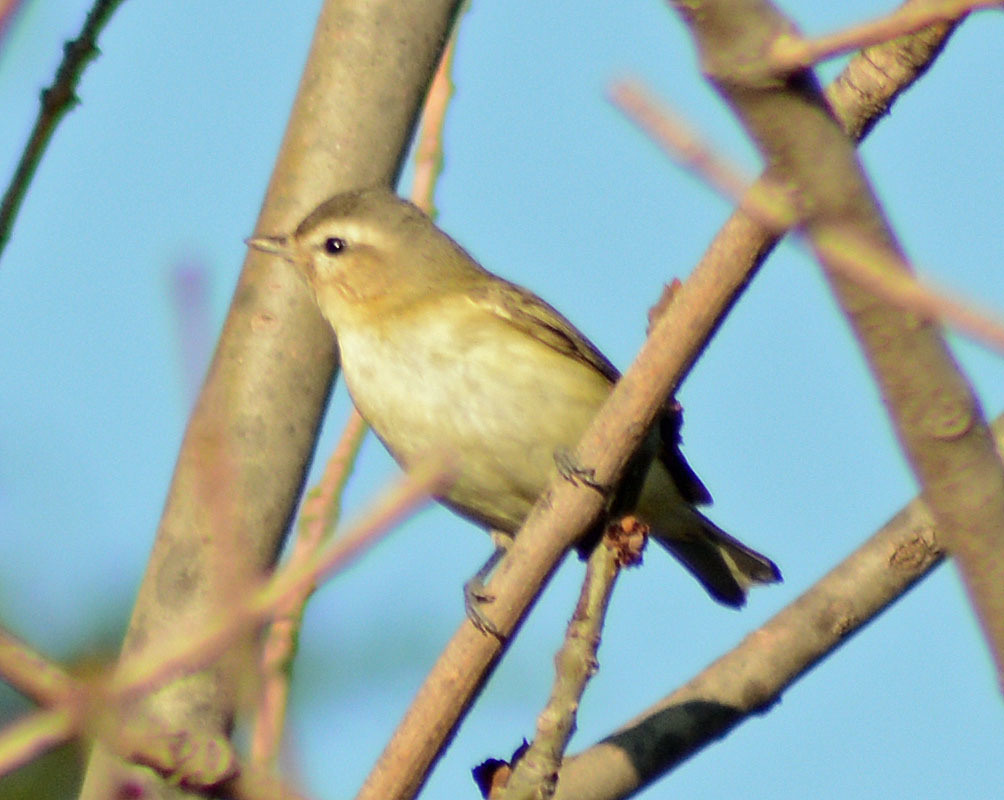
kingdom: Animalia
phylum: Chordata
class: Aves
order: Passeriformes
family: Vireonidae
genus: Vireo
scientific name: Vireo gilvus
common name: Warbling vireo
